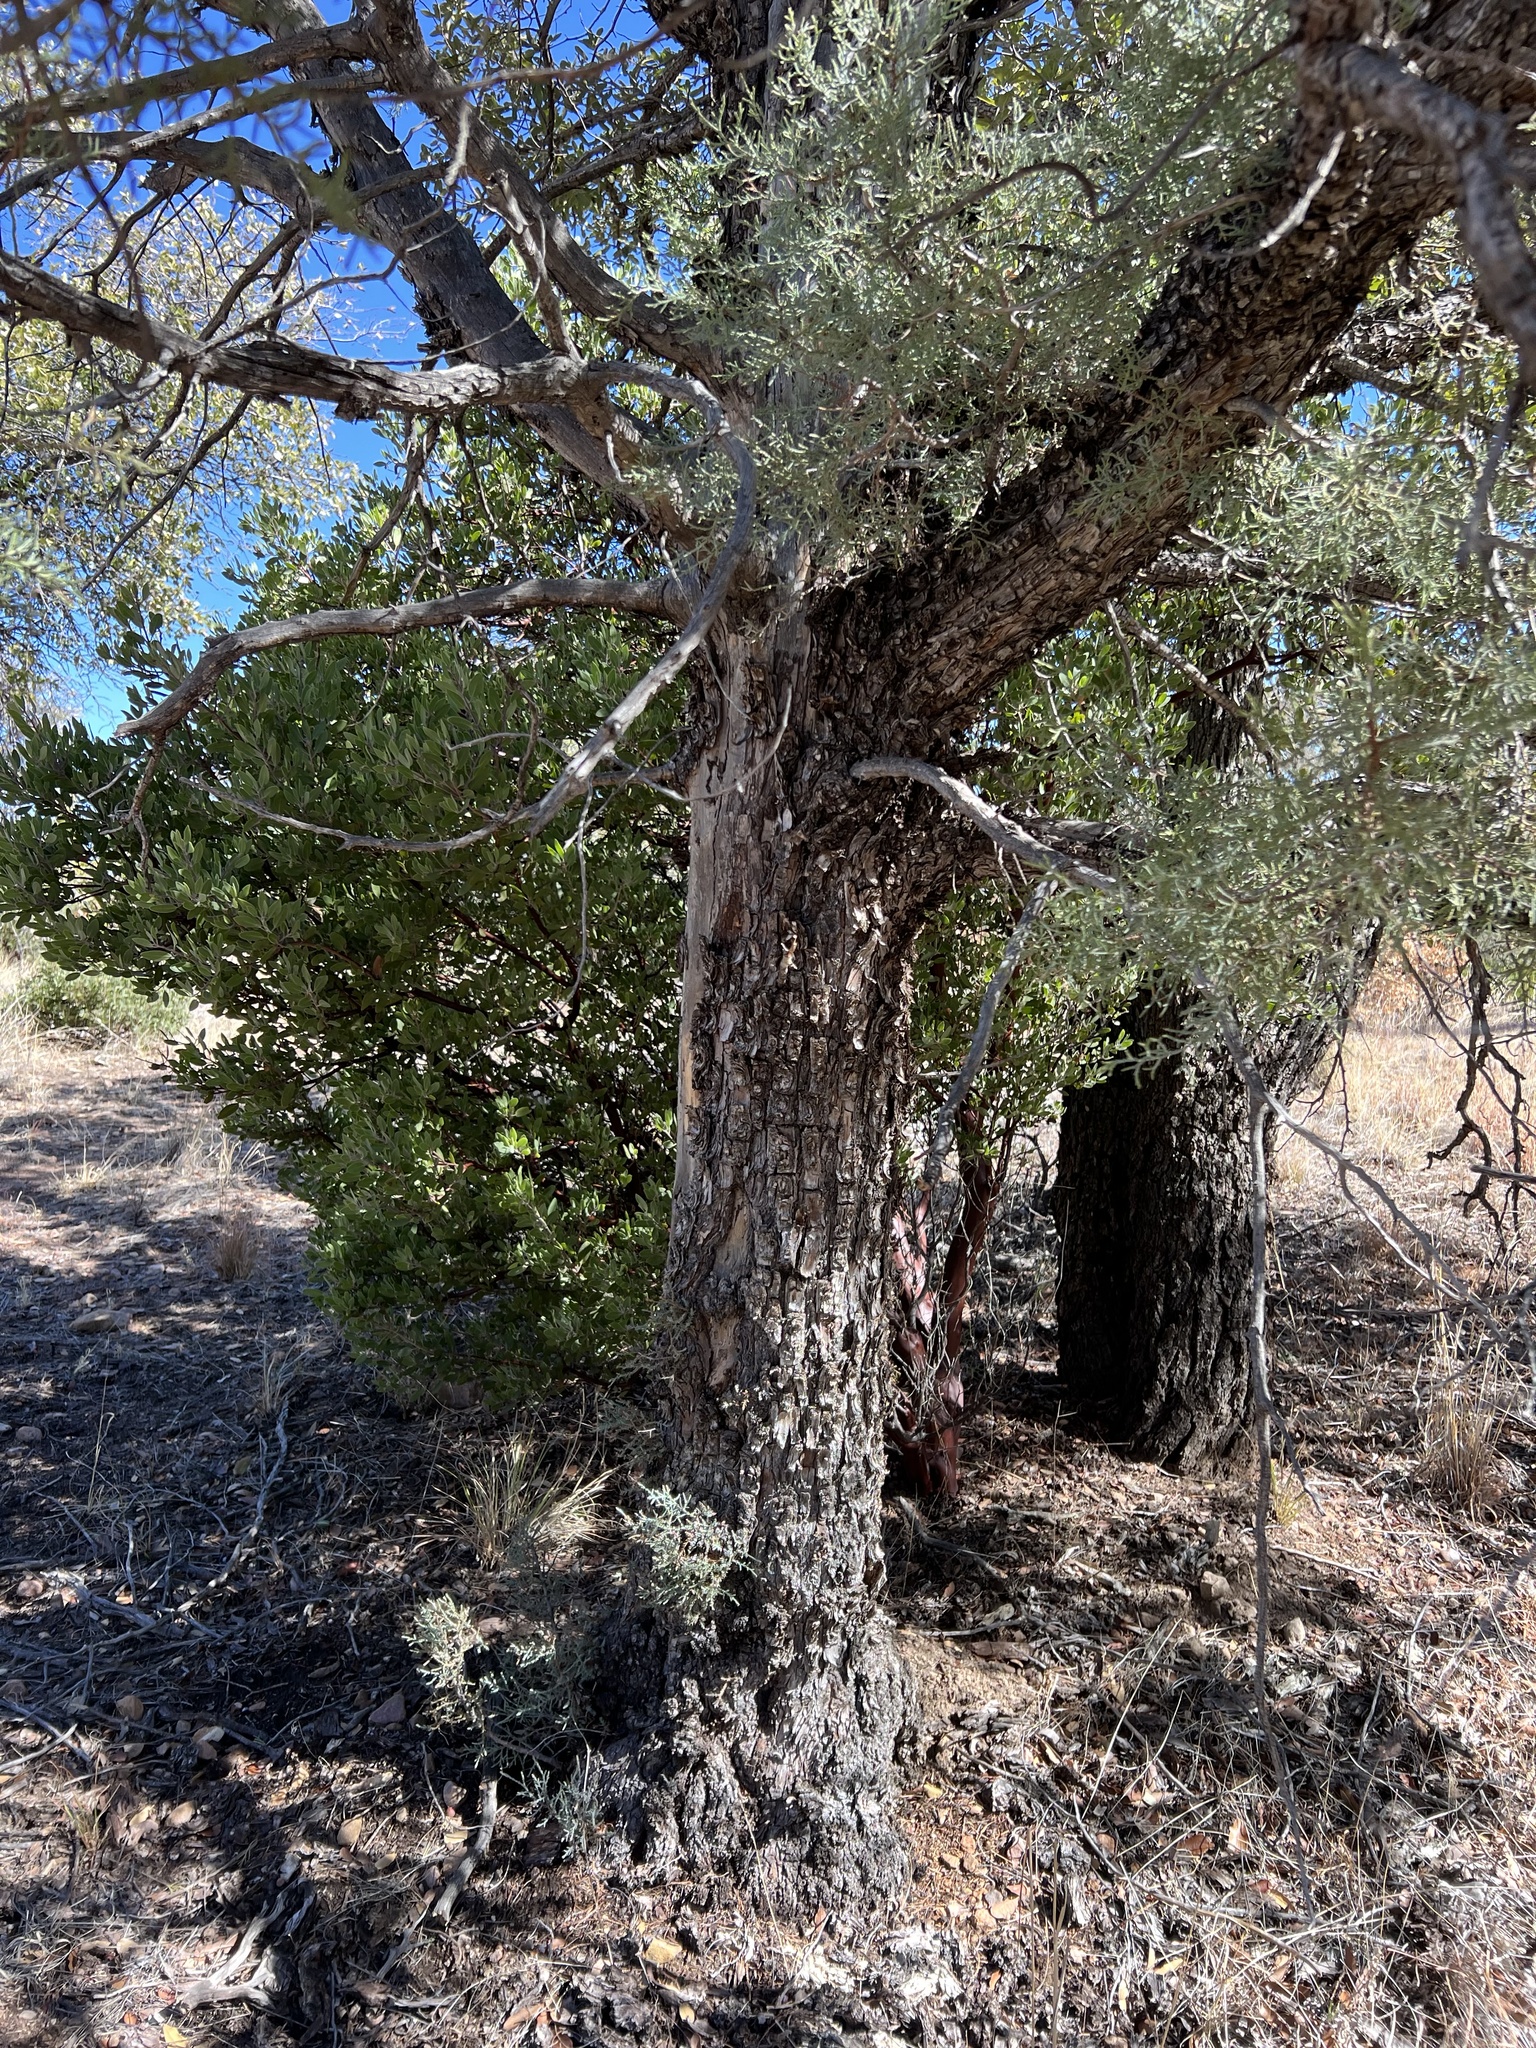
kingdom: Plantae
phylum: Tracheophyta
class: Pinopsida
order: Pinales
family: Cupressaceae
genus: Juniperus
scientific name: Juniperus deppeana
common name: Alligator juniper
